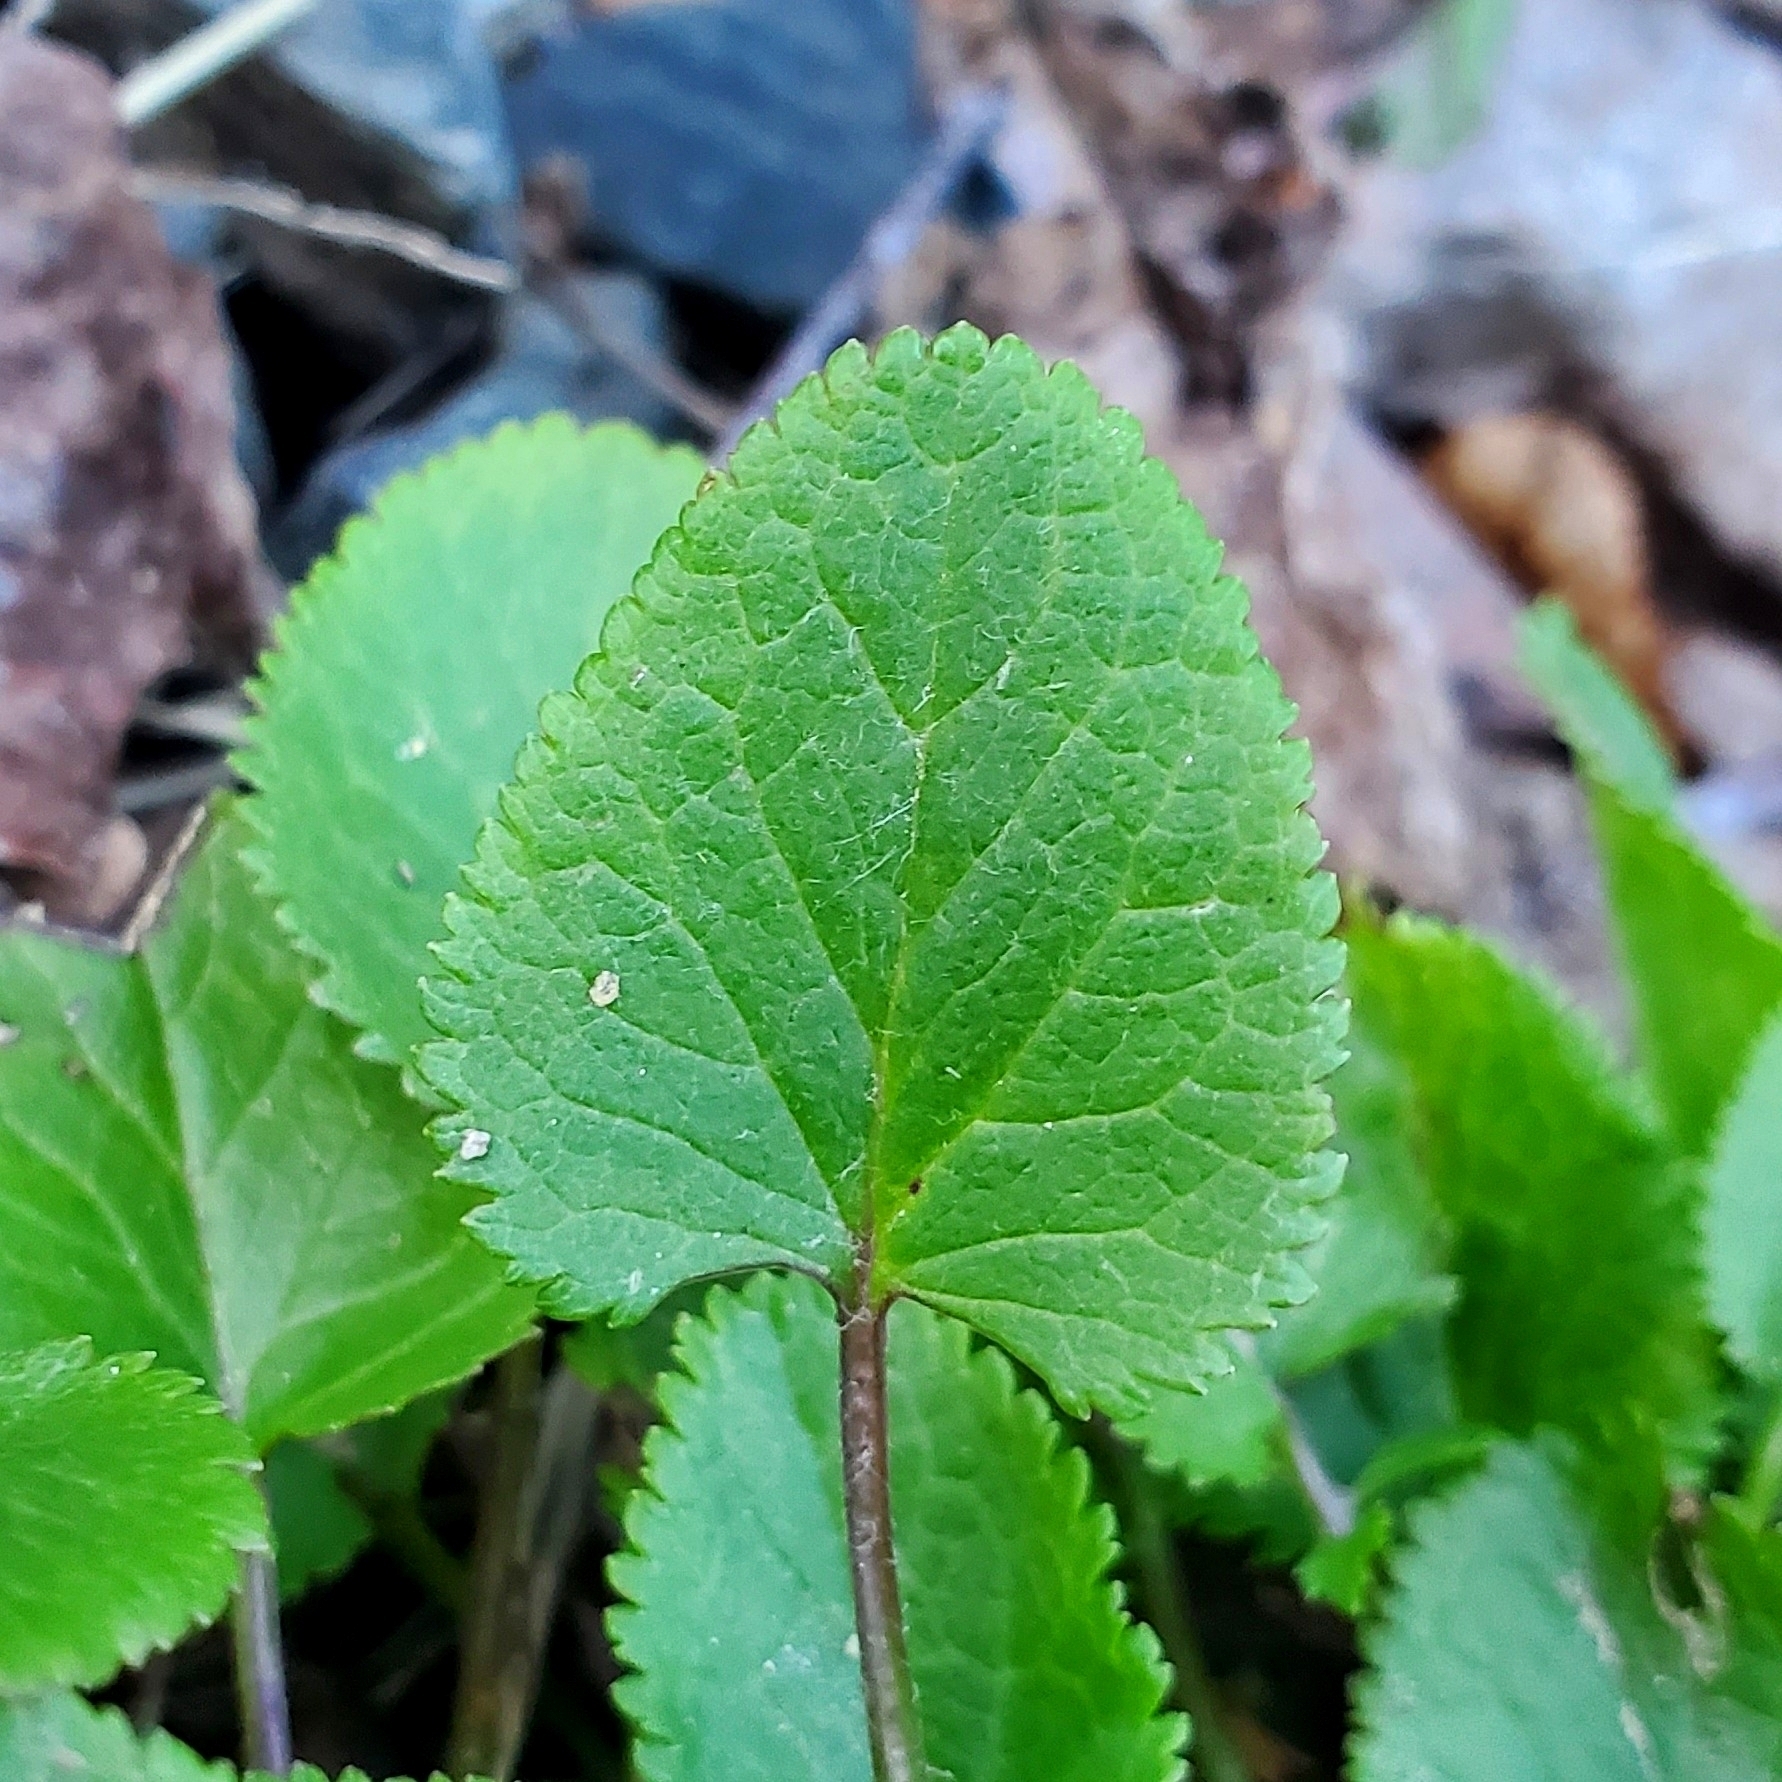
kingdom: Plantae
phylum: Tracheophyta
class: Magnoliopsida
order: Asterales
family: Asteraceae
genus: Packera
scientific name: Packera aurea
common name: Golden groundsel
